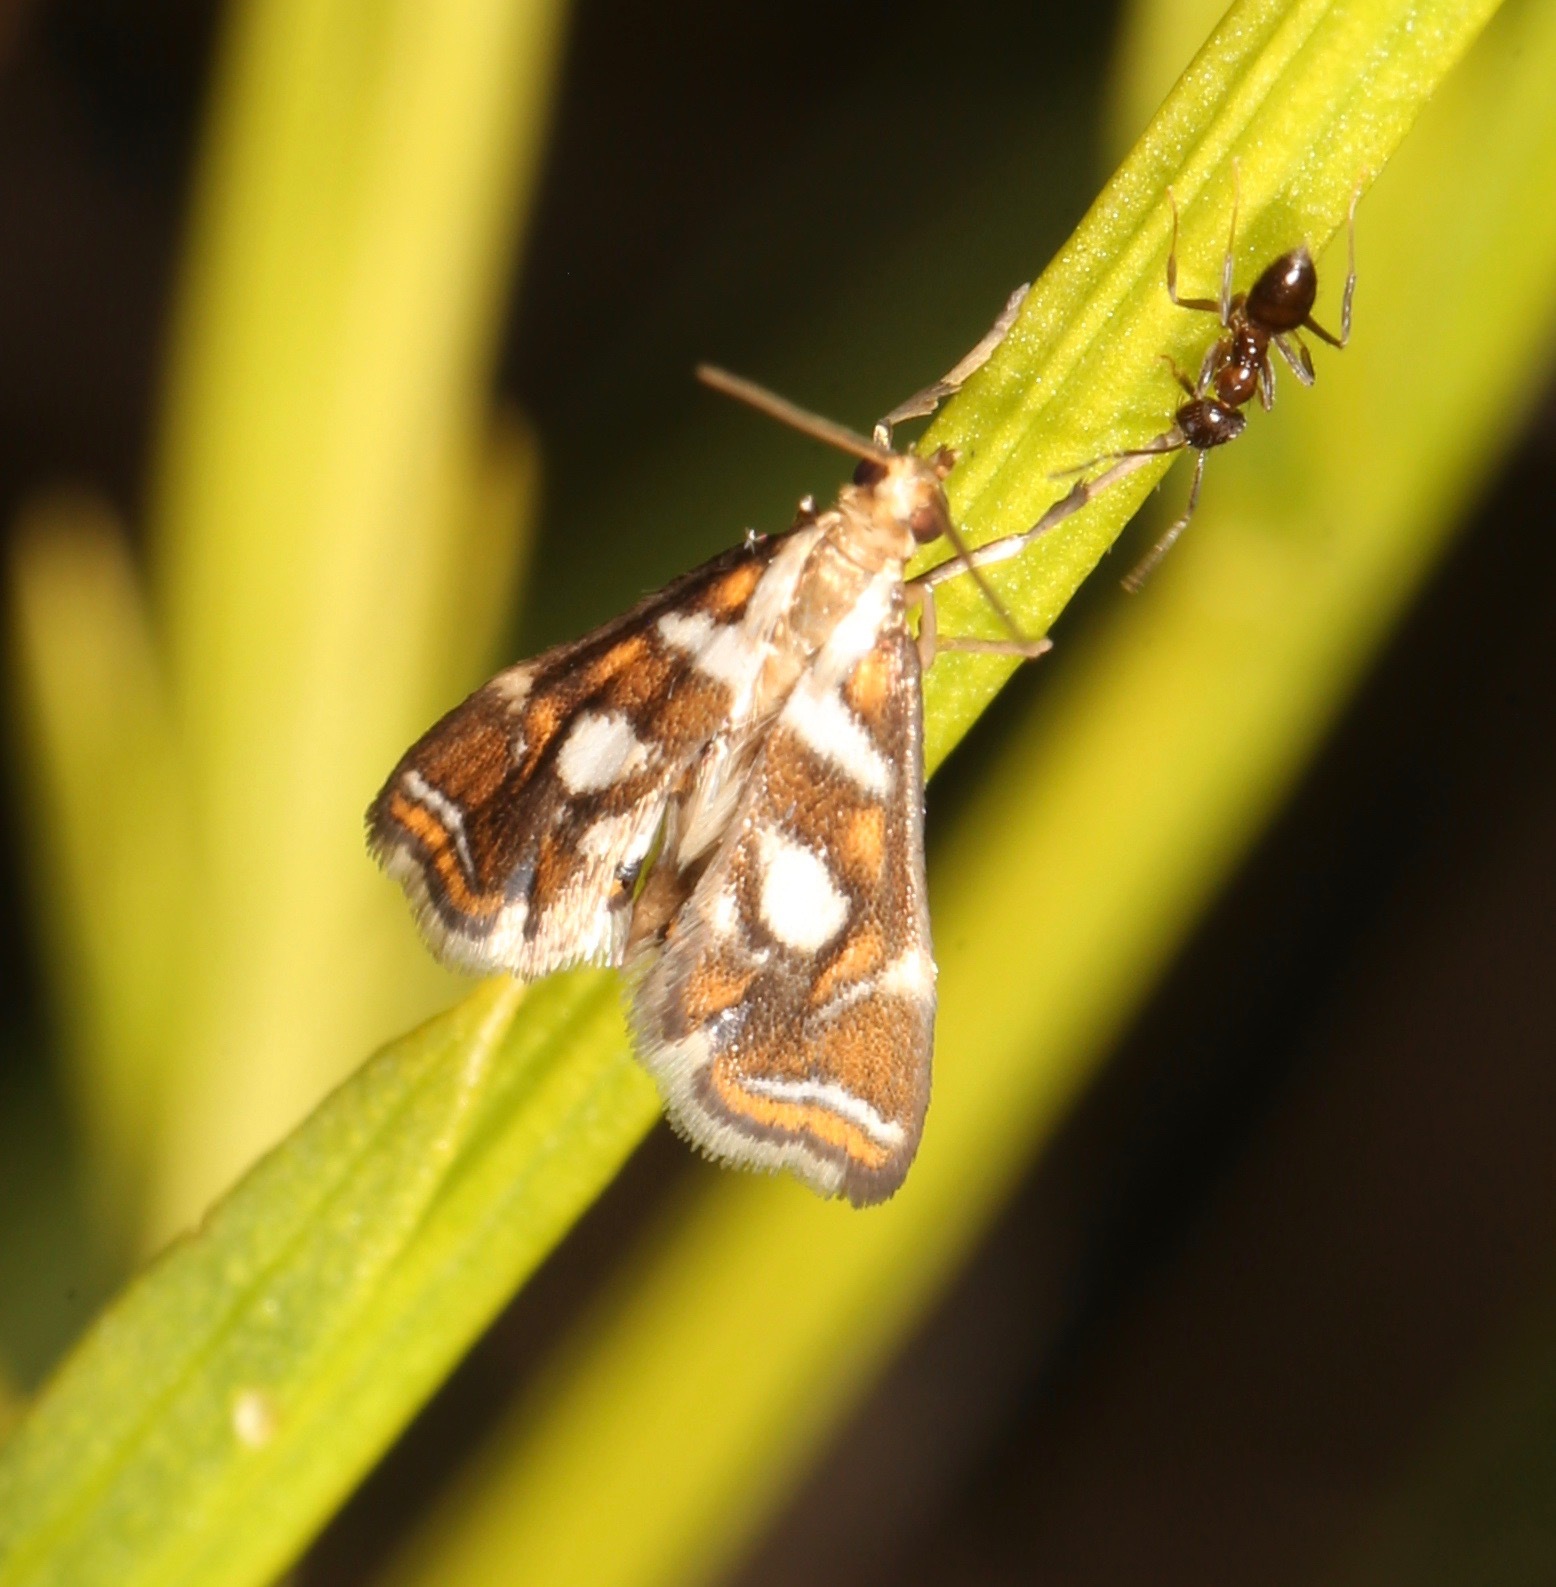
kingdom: Animalia
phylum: Arthropoda
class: Insecta
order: Lepidoptera
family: Crambidae
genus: Chrysendeton
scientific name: Chrysendeton medicinalis
